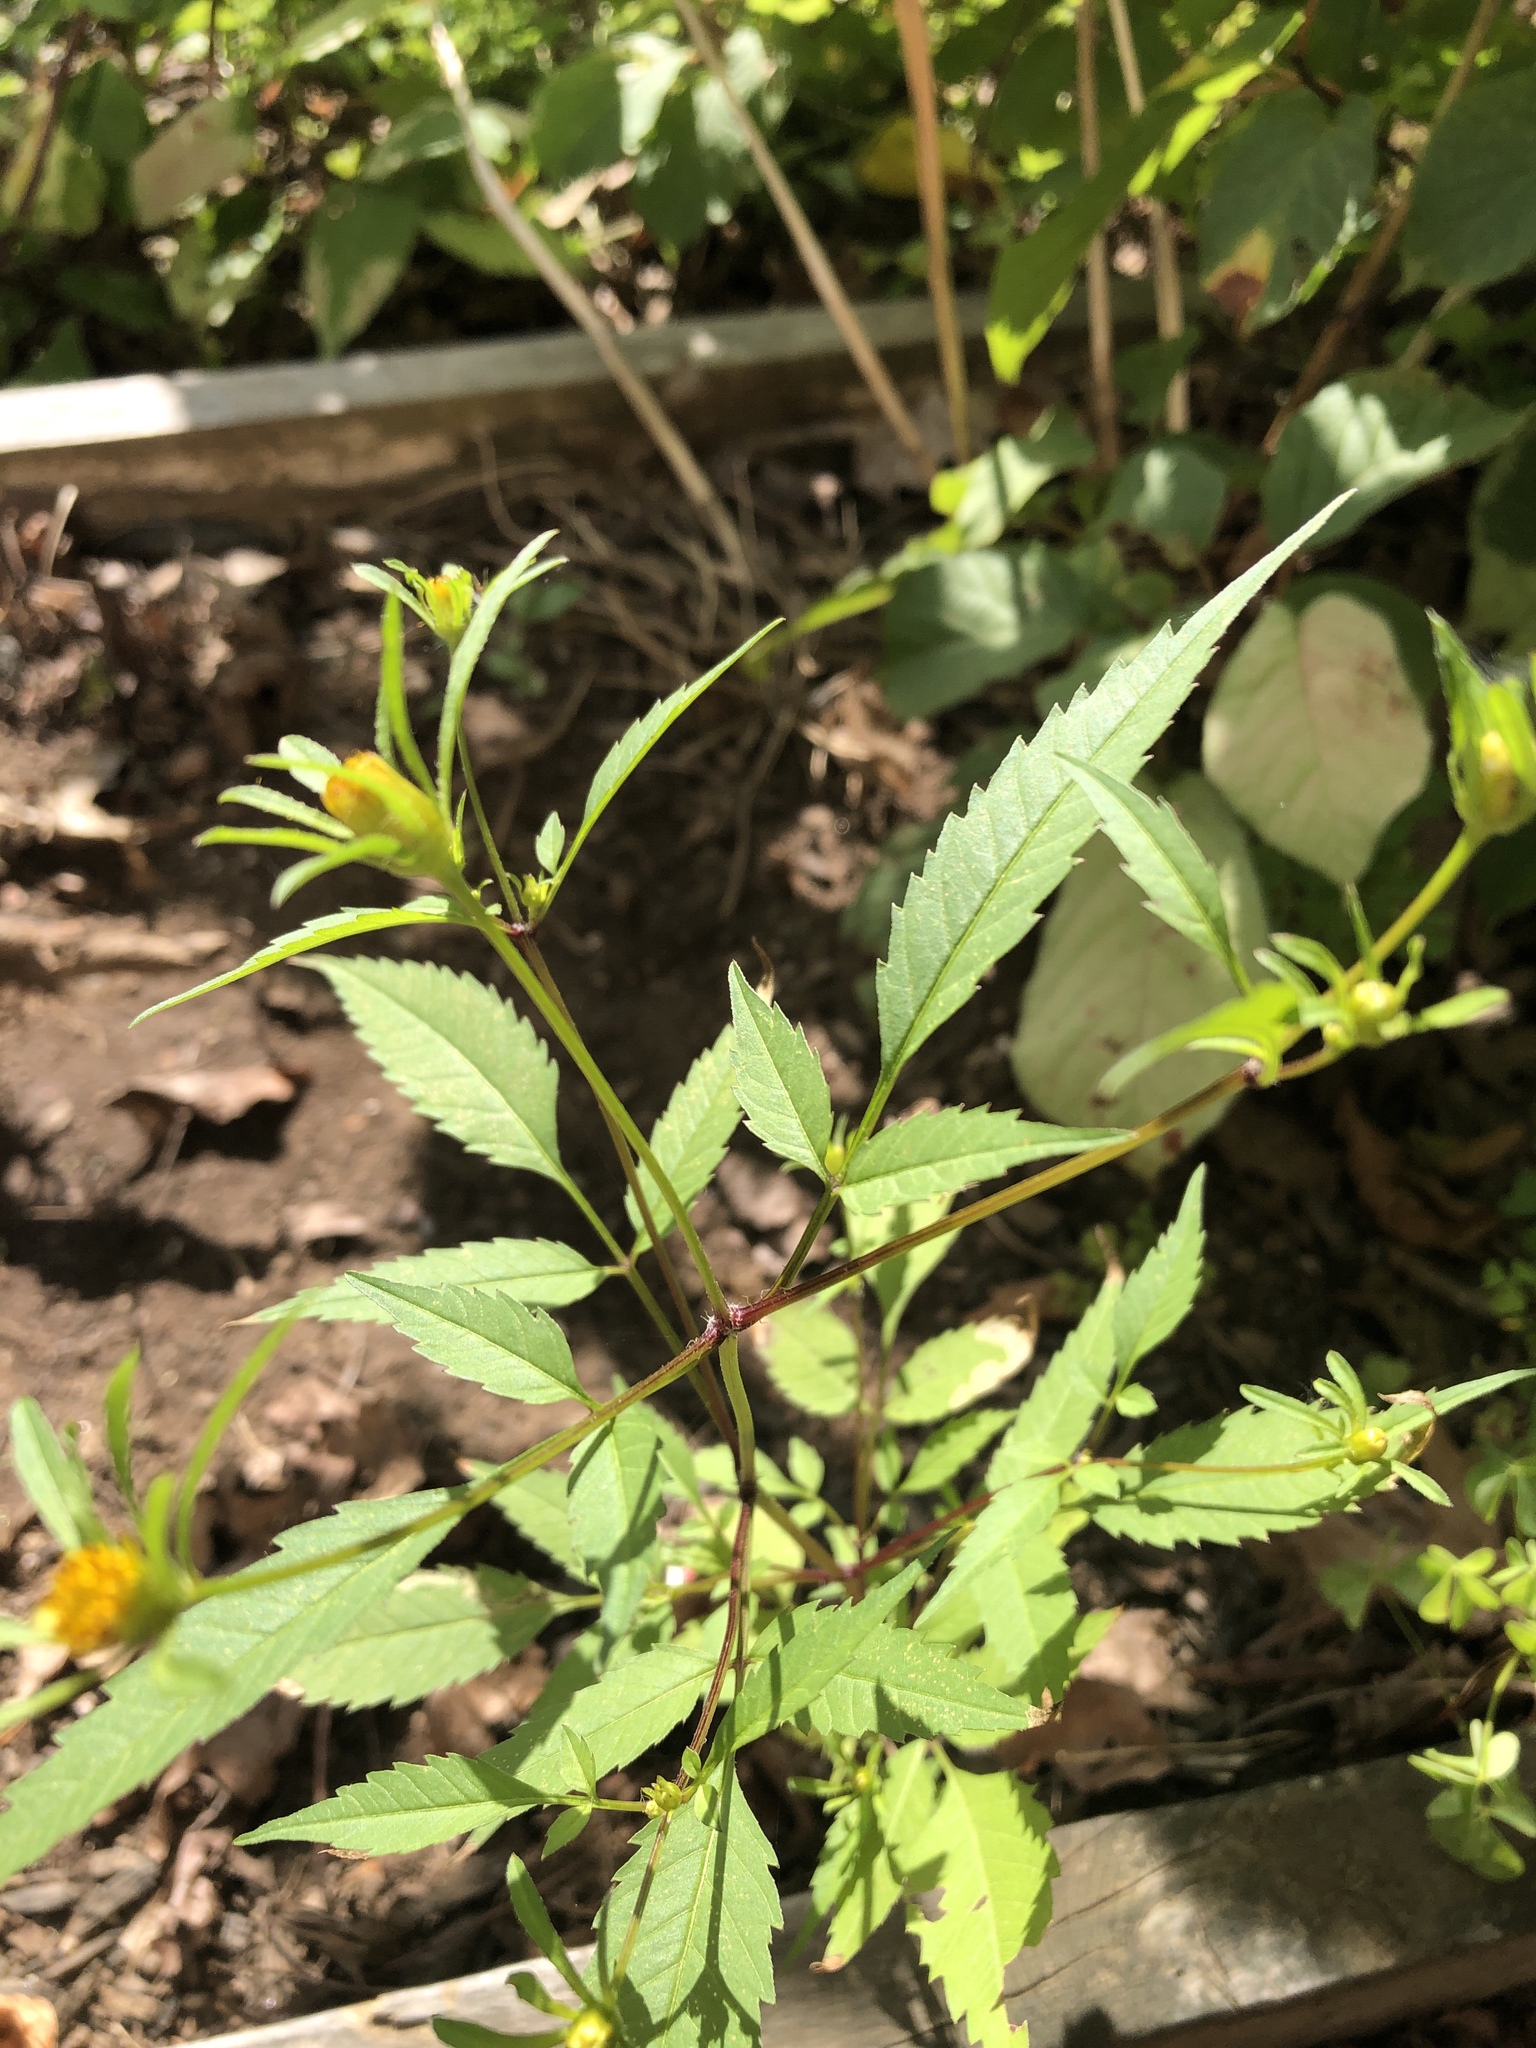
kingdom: Plantae
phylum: Tracheophyta
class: Magnoliopsida
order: Asterales
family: Asteraceae
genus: Bidens
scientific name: Bidens frondosa
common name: Beggarticks
